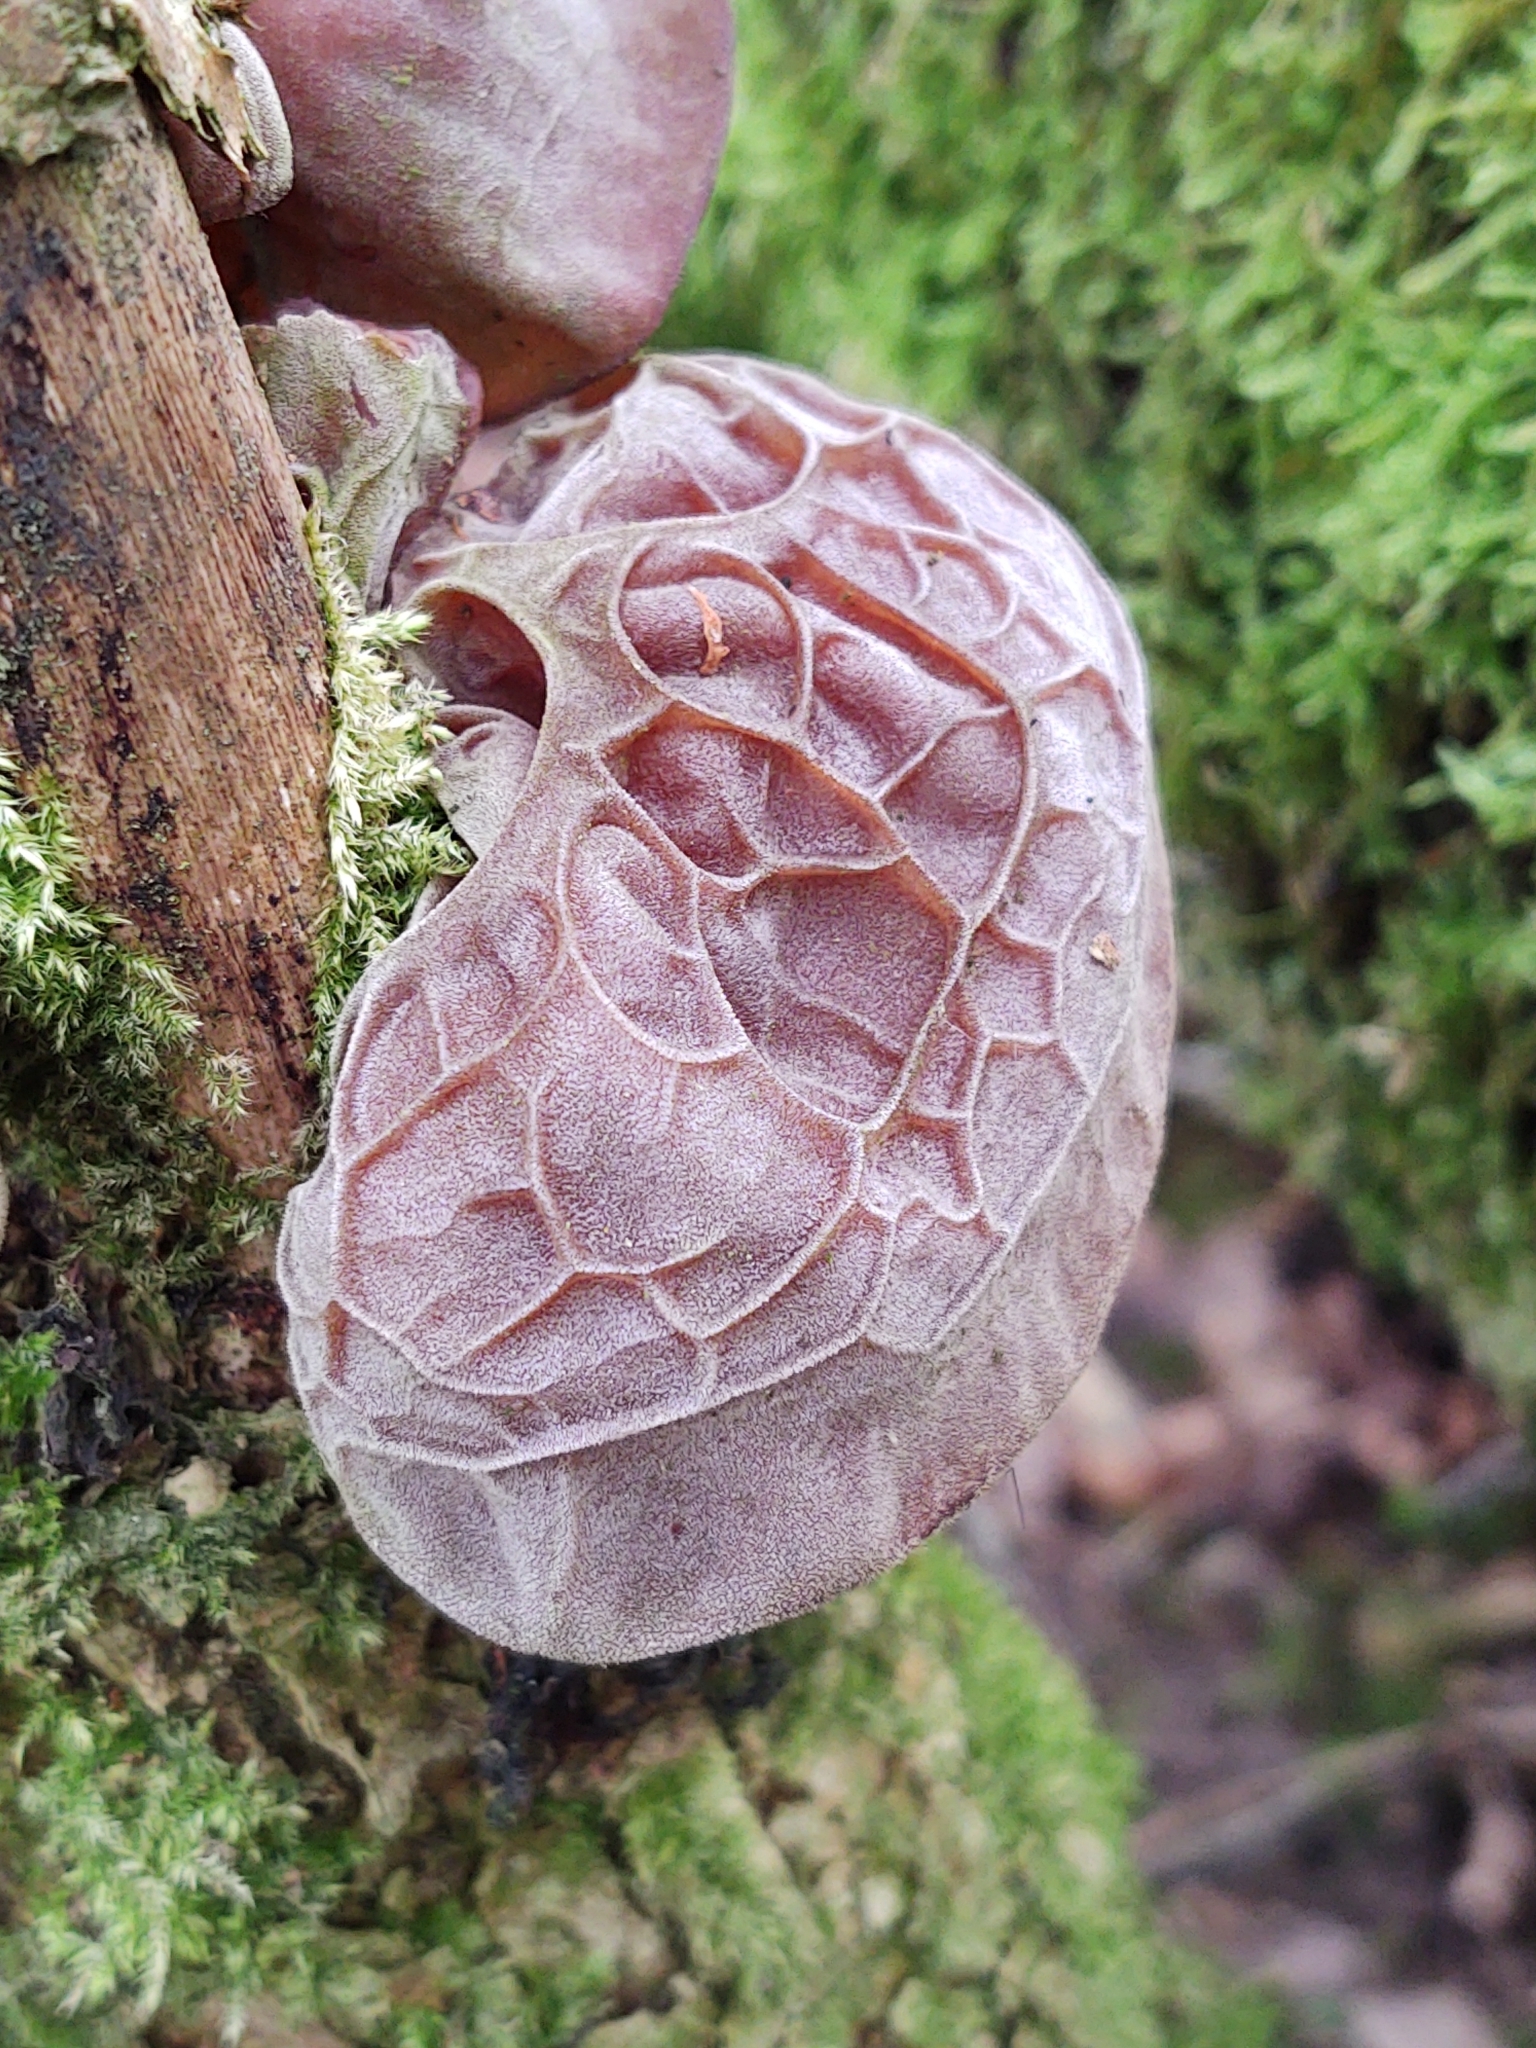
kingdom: Fungi
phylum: Basidiomycota
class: Agaricomycetes
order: Auriculariales
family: Auriculariaceae
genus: Auricularia
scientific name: Auricularia auricula-judae
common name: Jelly ear
